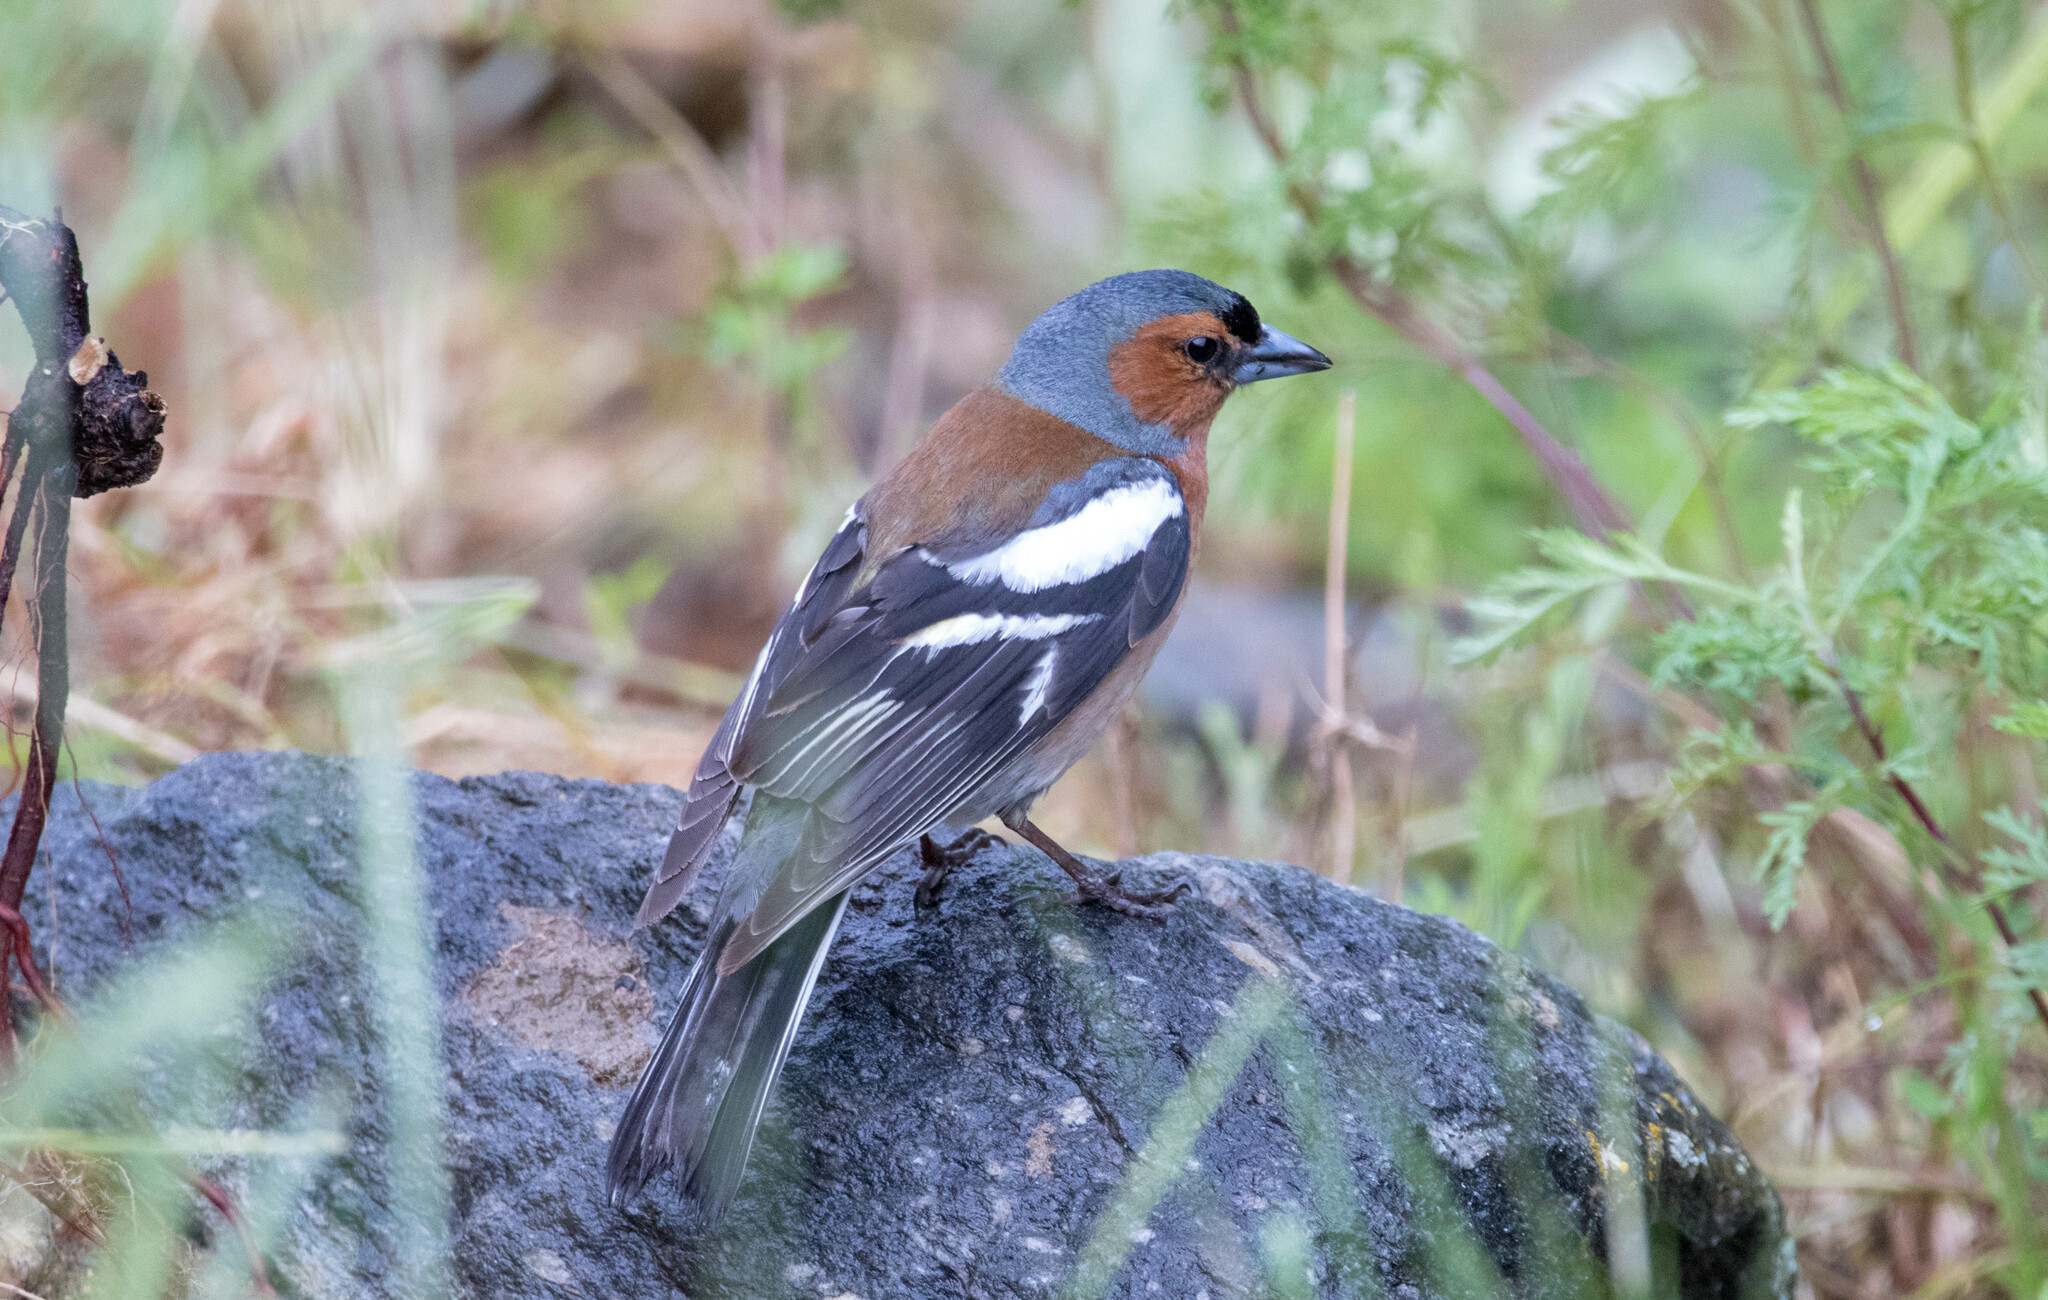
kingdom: Animalia
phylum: Chordata
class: Aves
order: Passeriformes
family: Fringillidae
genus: Fringilla
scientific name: Fringilla coelebs
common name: Common chaffinch
